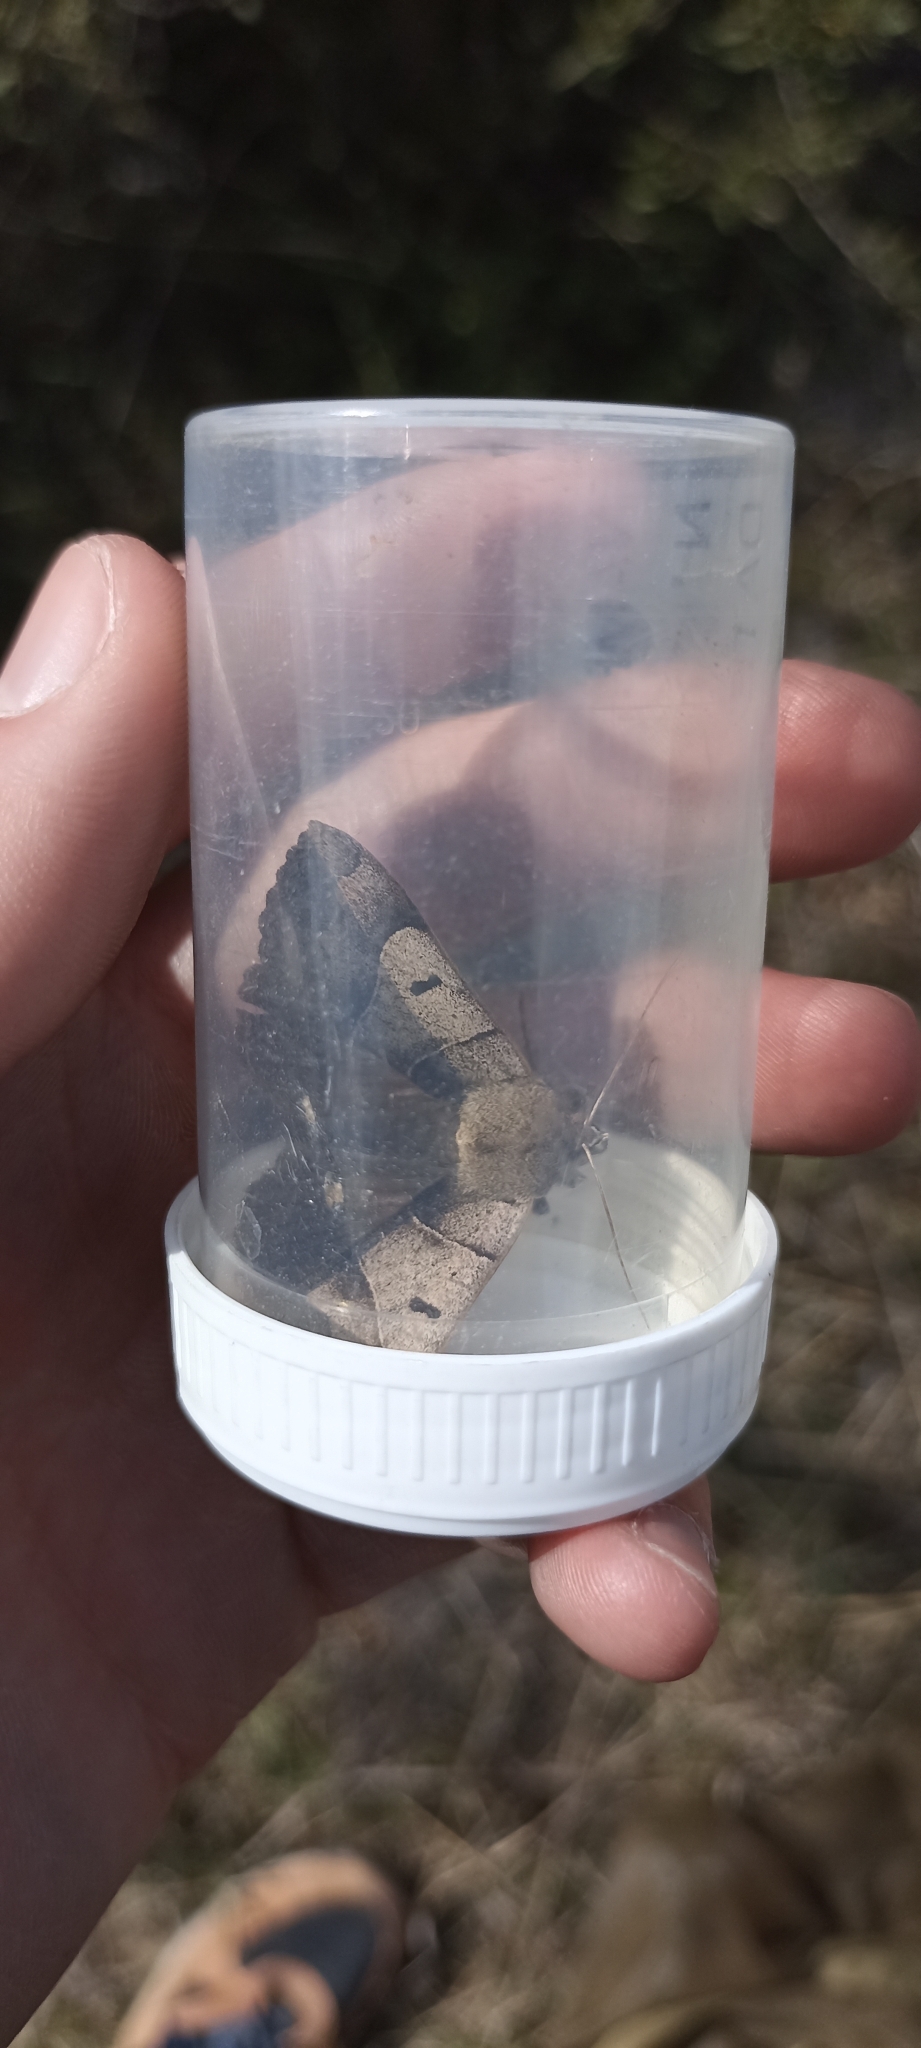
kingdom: Animalia
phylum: Arthropoda
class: Insecta
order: Lepidoptera
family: Erebidae
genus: Minucia
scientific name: Minucia lunaris
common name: Lunar double-stripe
